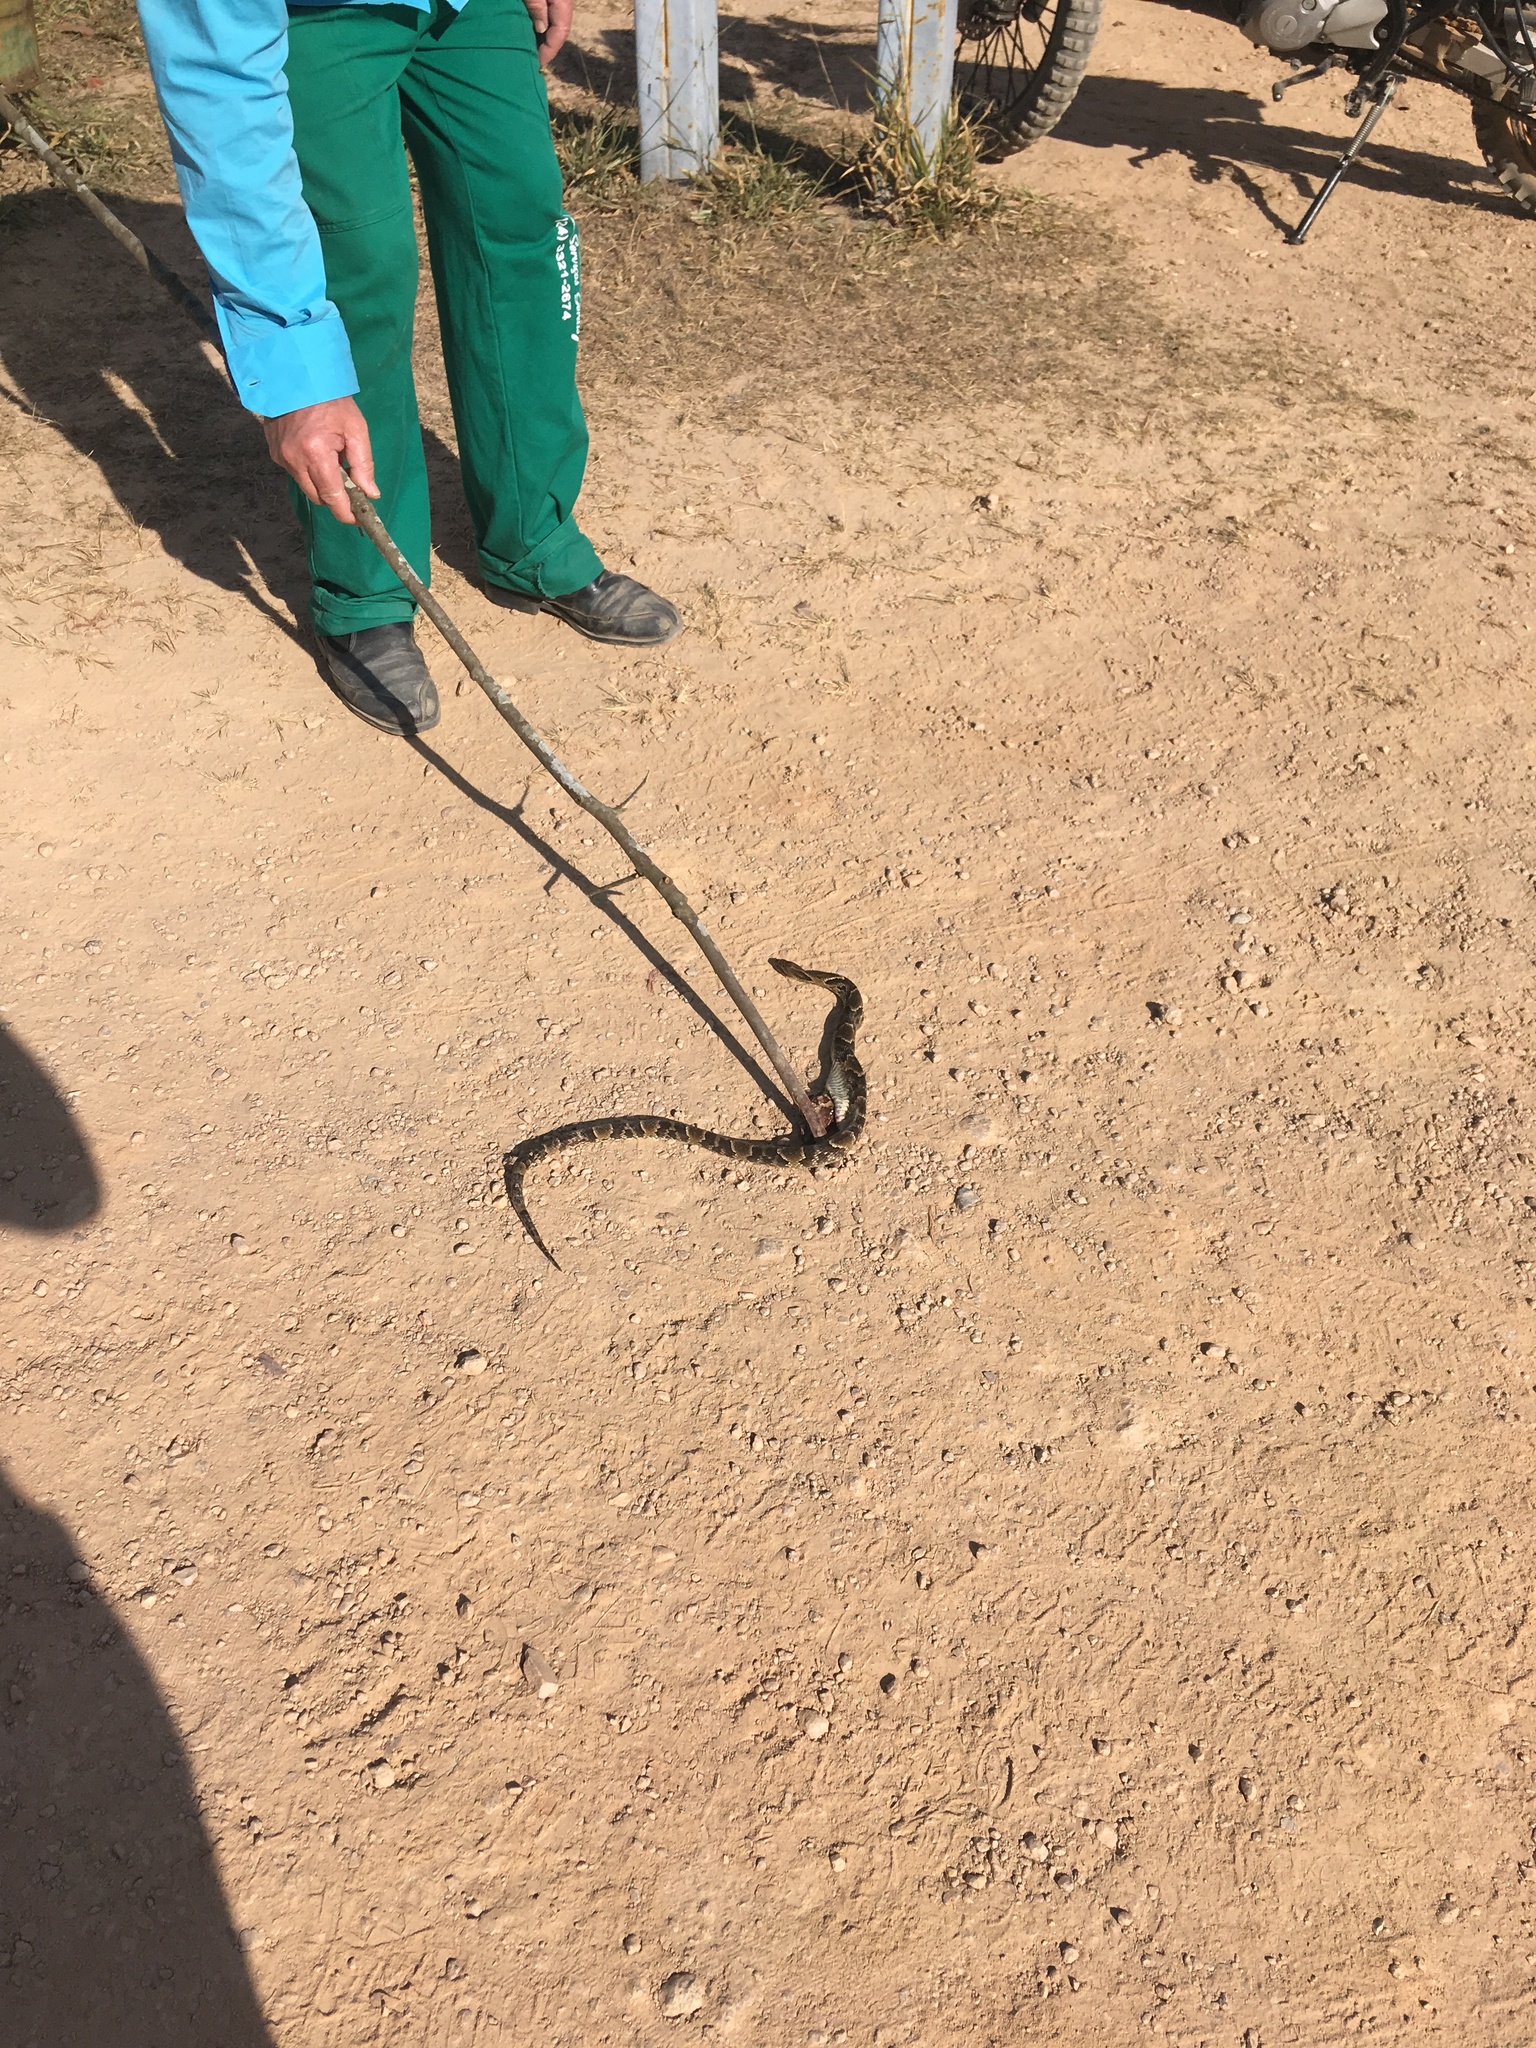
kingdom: Animalia
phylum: Chordata
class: Squamata
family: Colubridae
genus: Xenodon
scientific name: Xenodon merremii
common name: Wagler's snake
